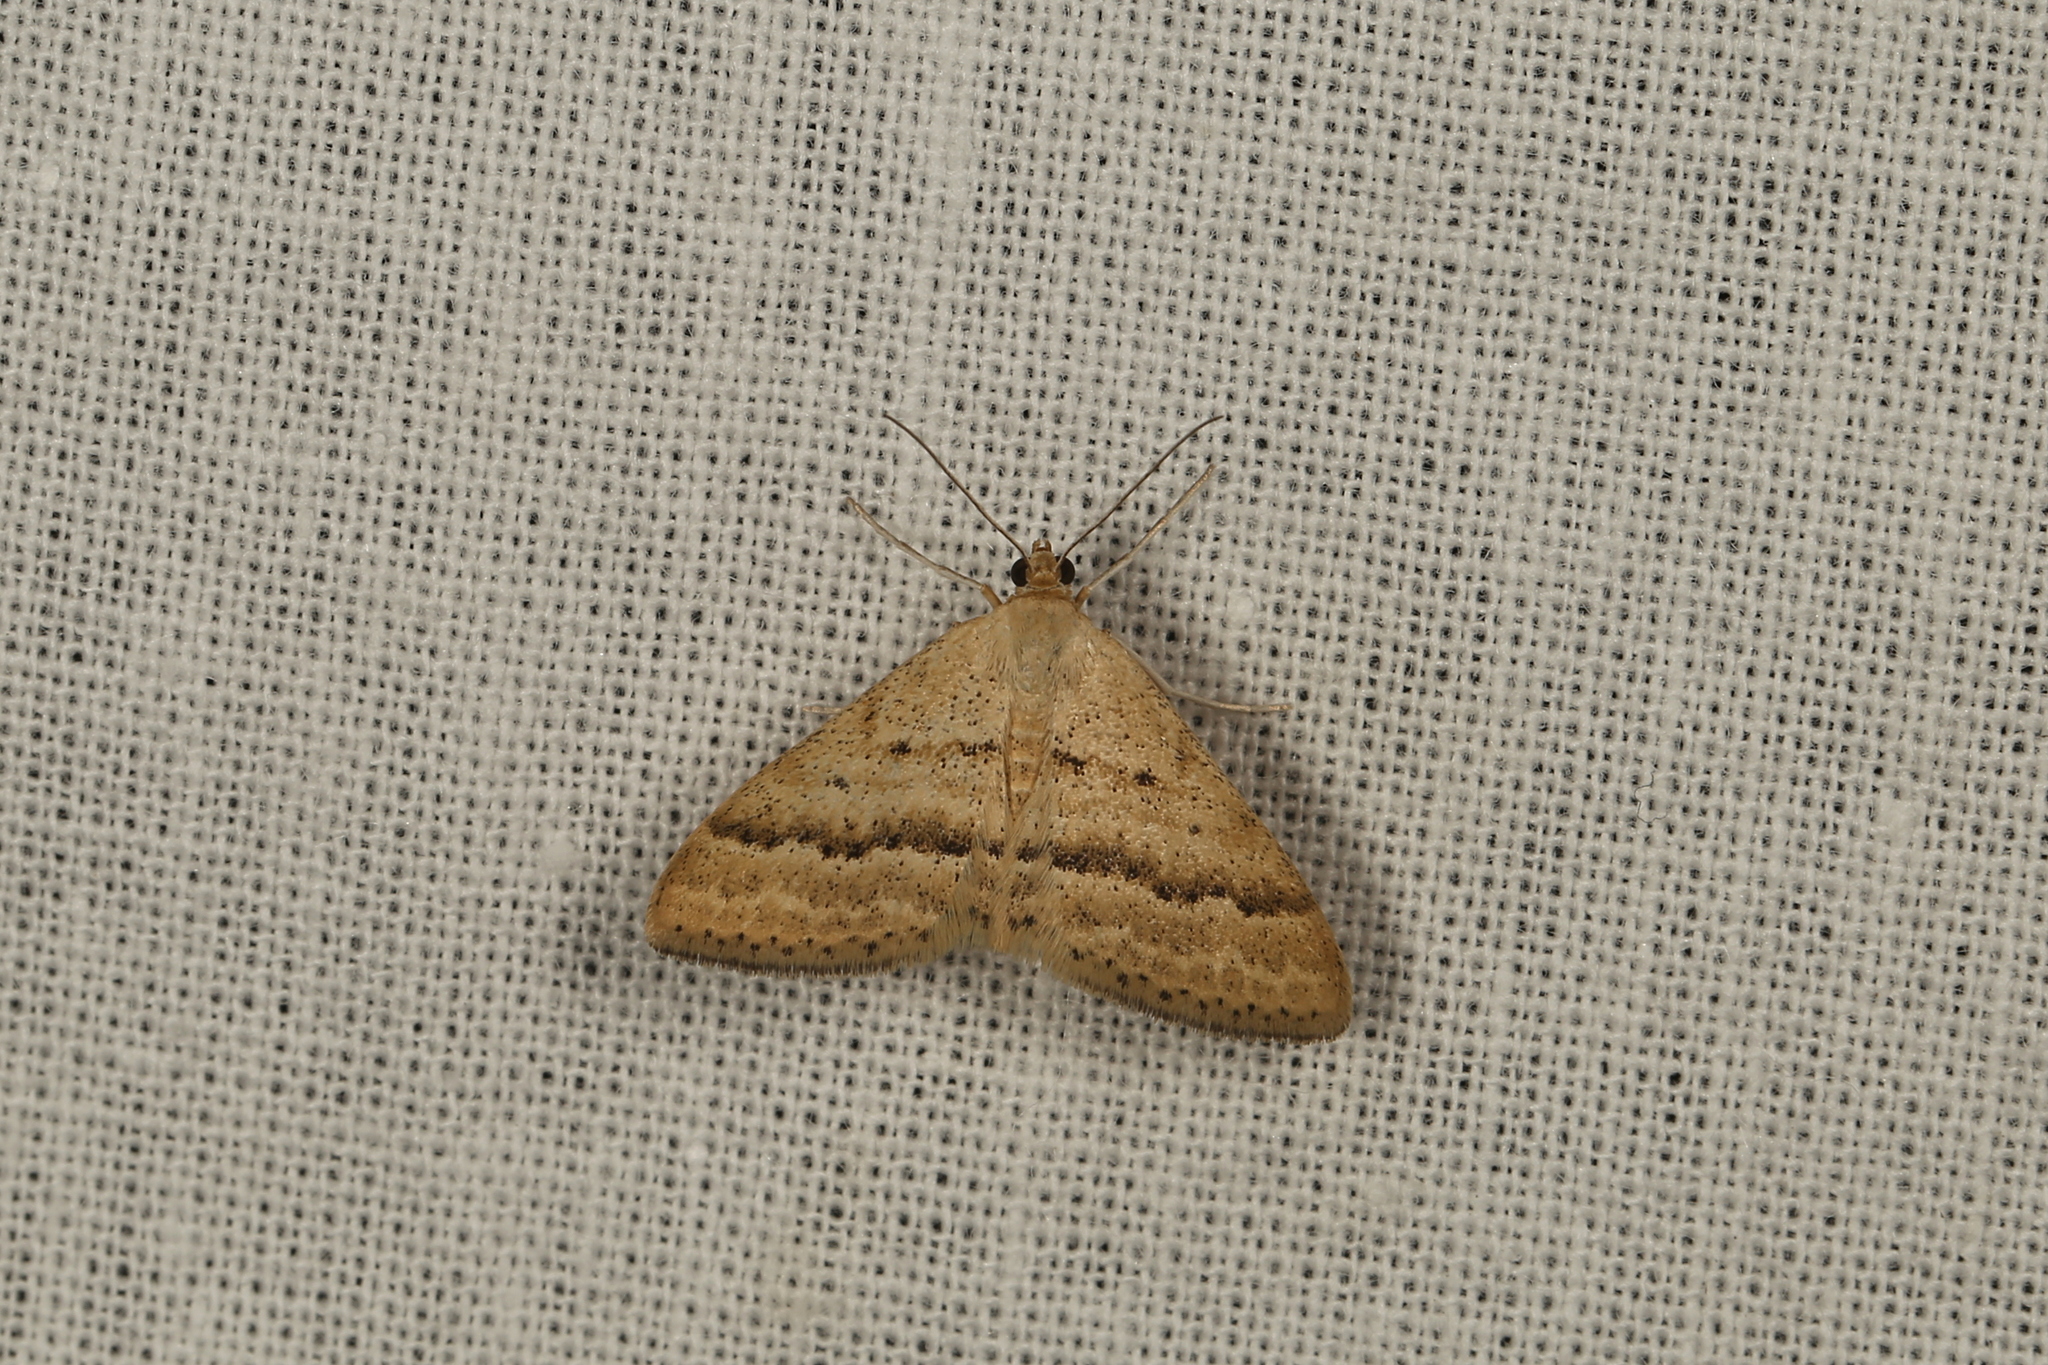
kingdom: Animalia
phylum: Arthropoda
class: Insecta
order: Lepidoptera
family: Geometridae
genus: Scopula
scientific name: Scopula lydia
